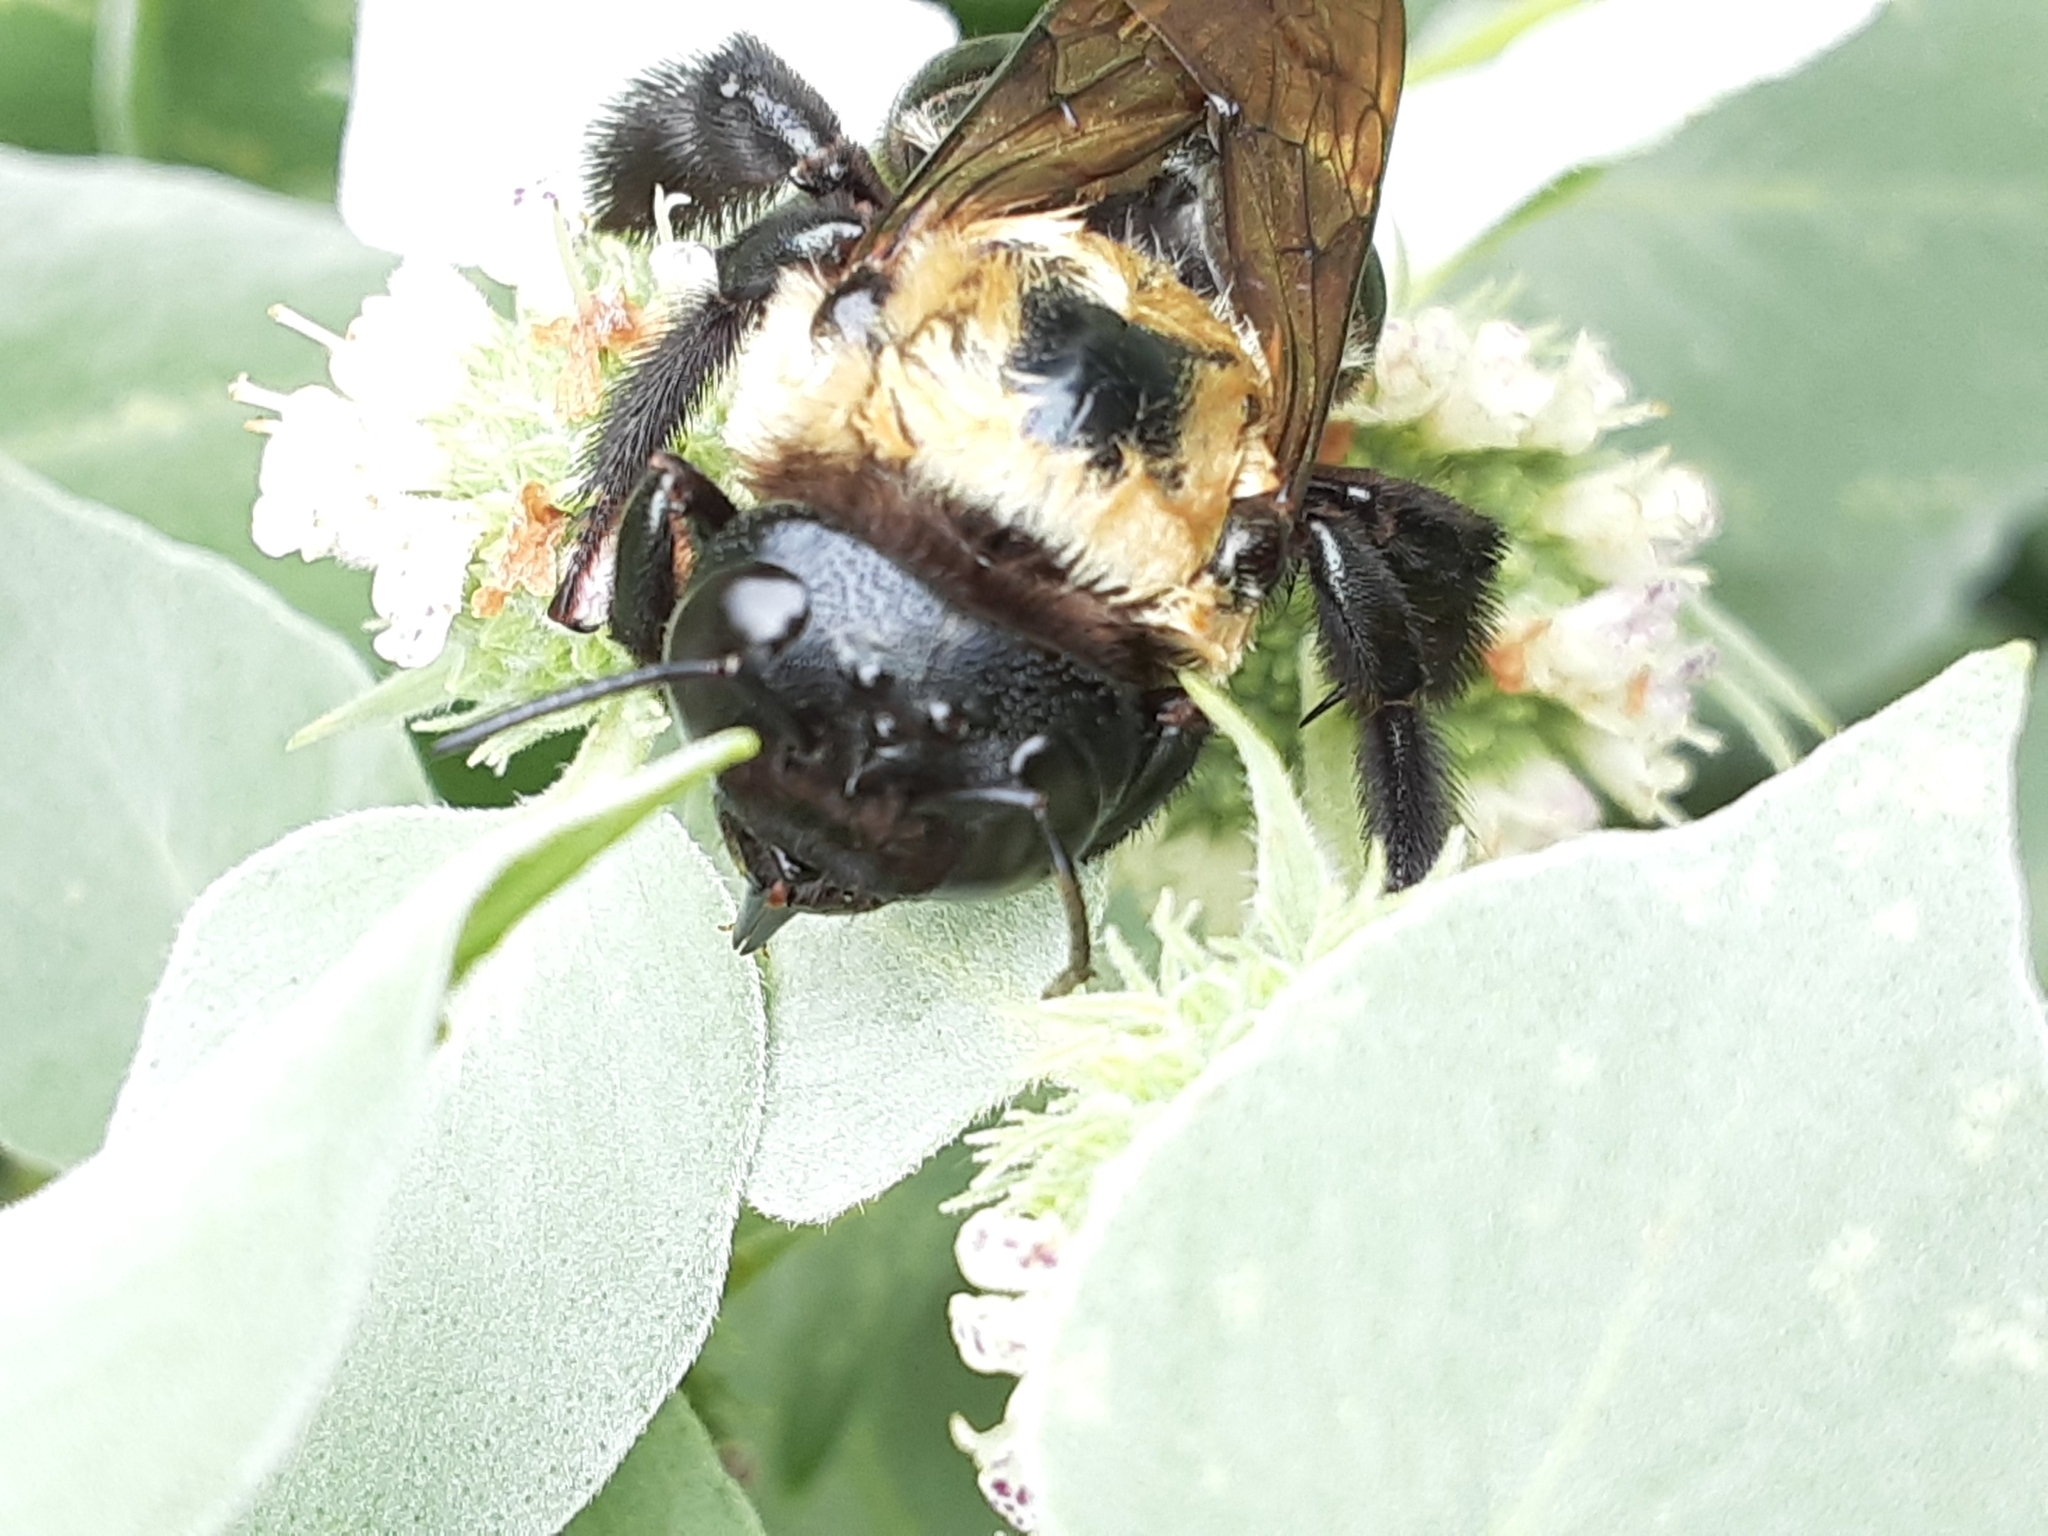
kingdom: Animalia
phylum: Arthropoda
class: Insecta
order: Hymenoptera
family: Apidae
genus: Xylocopa
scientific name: Xylocopa virginica
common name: Carpenter bee
